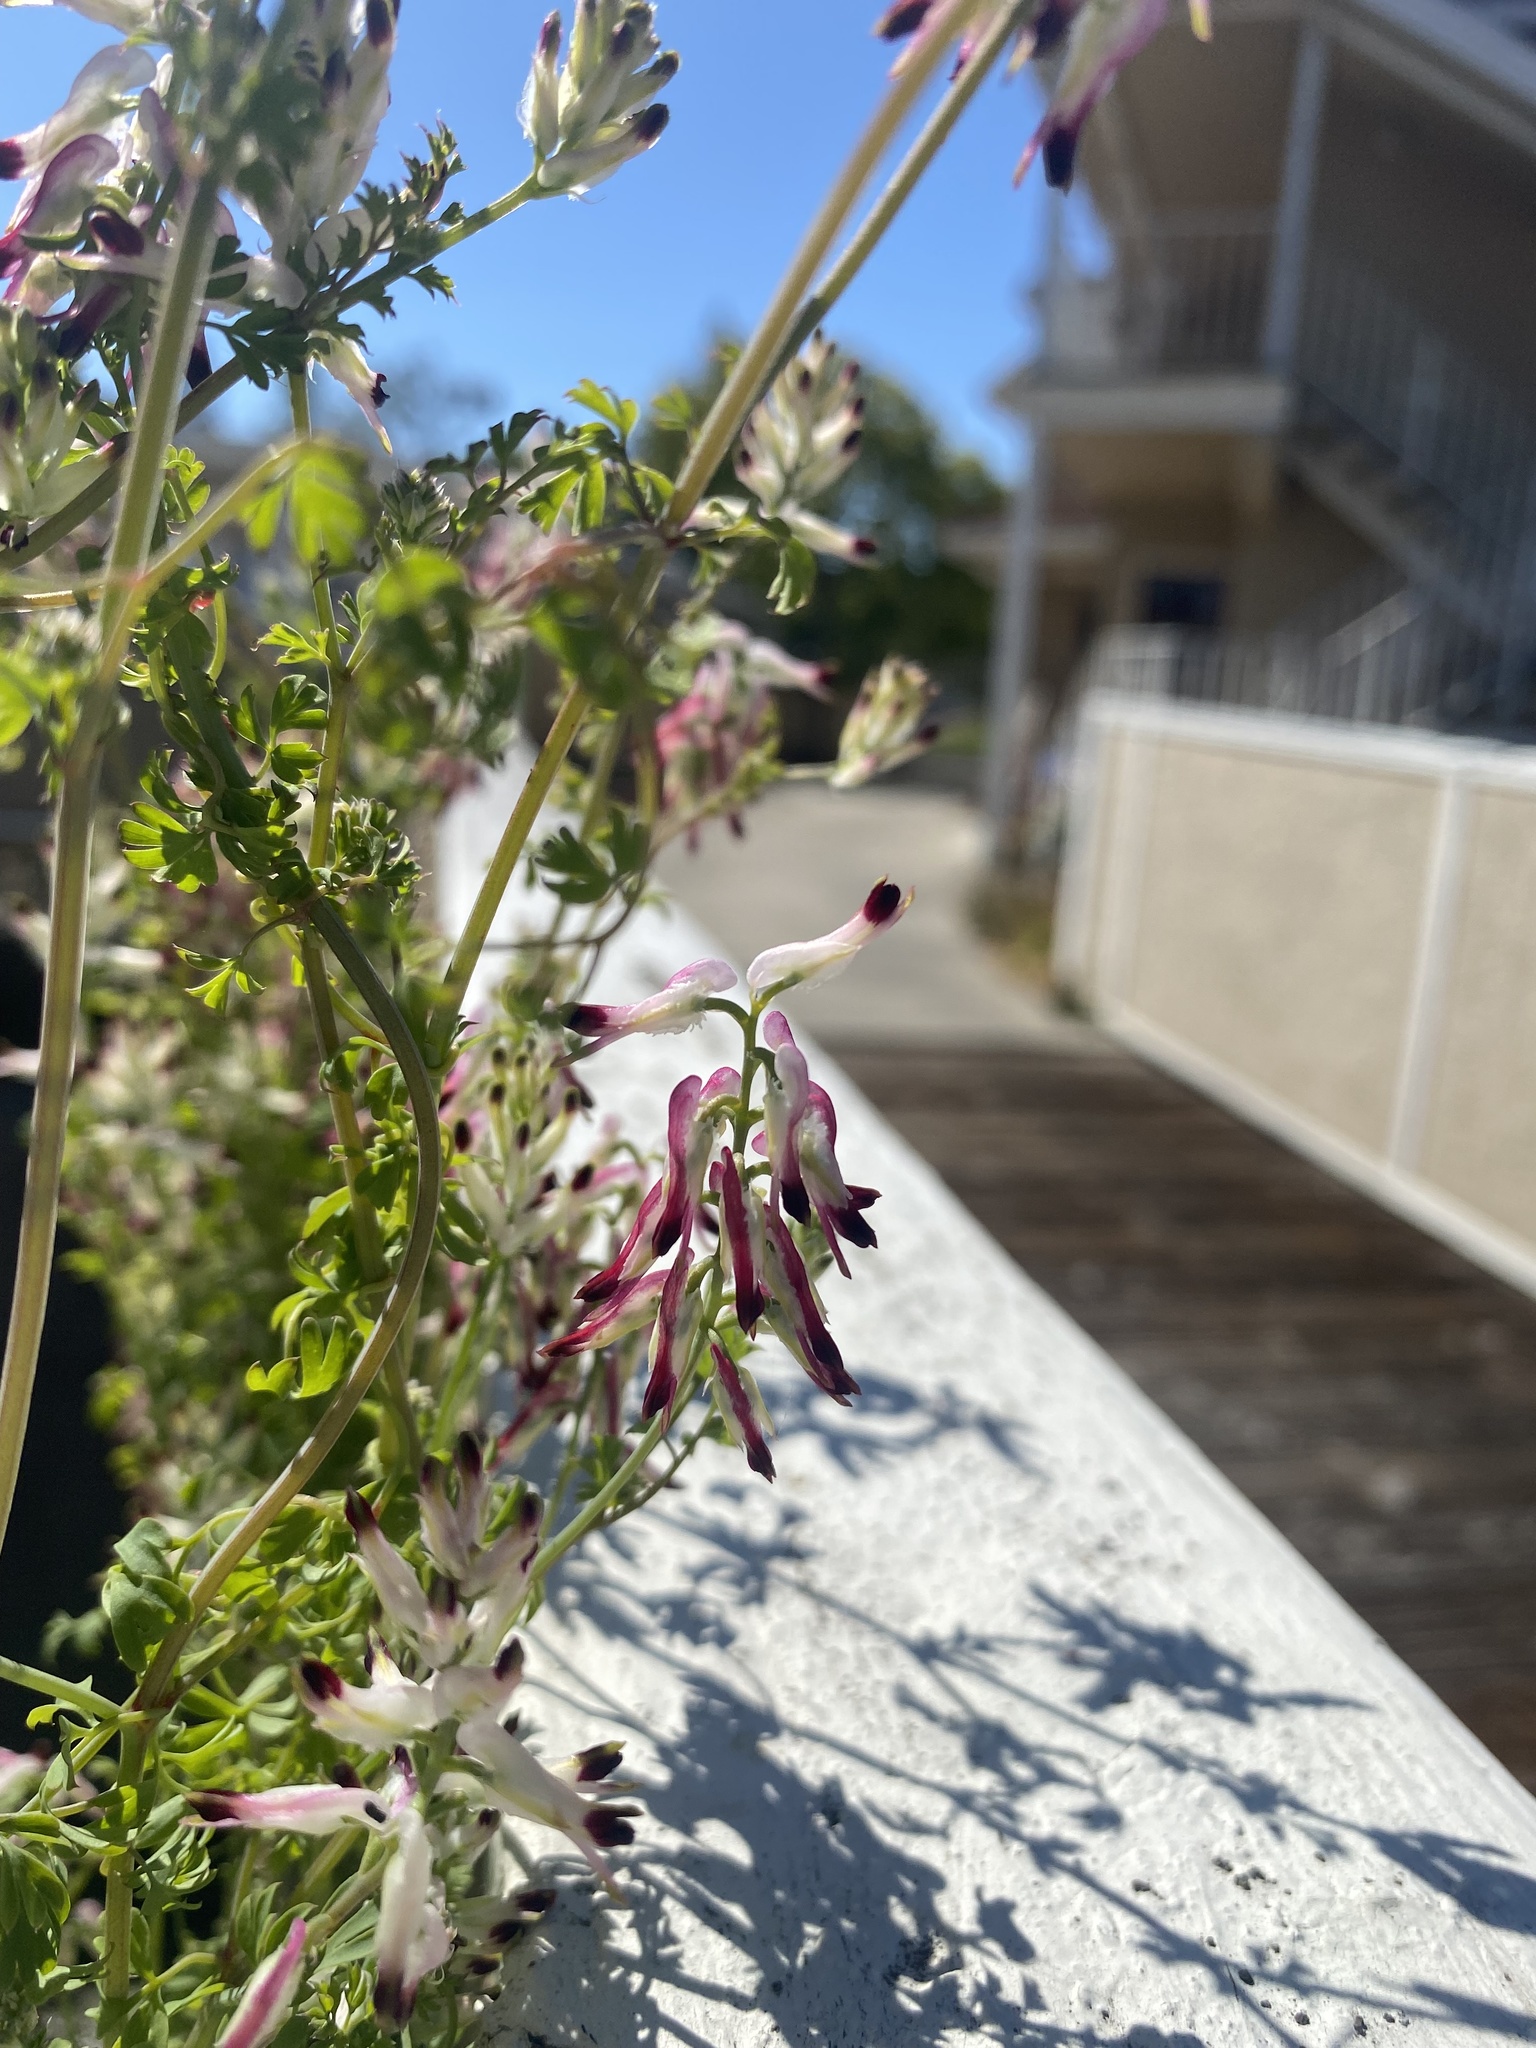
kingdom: Plantae
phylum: Tracheophyta
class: Magnoliopsida
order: Ranunculales
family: Papaveraceae
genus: Fumaria
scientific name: Fumaria capreolata
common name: White ramping-fumitory
